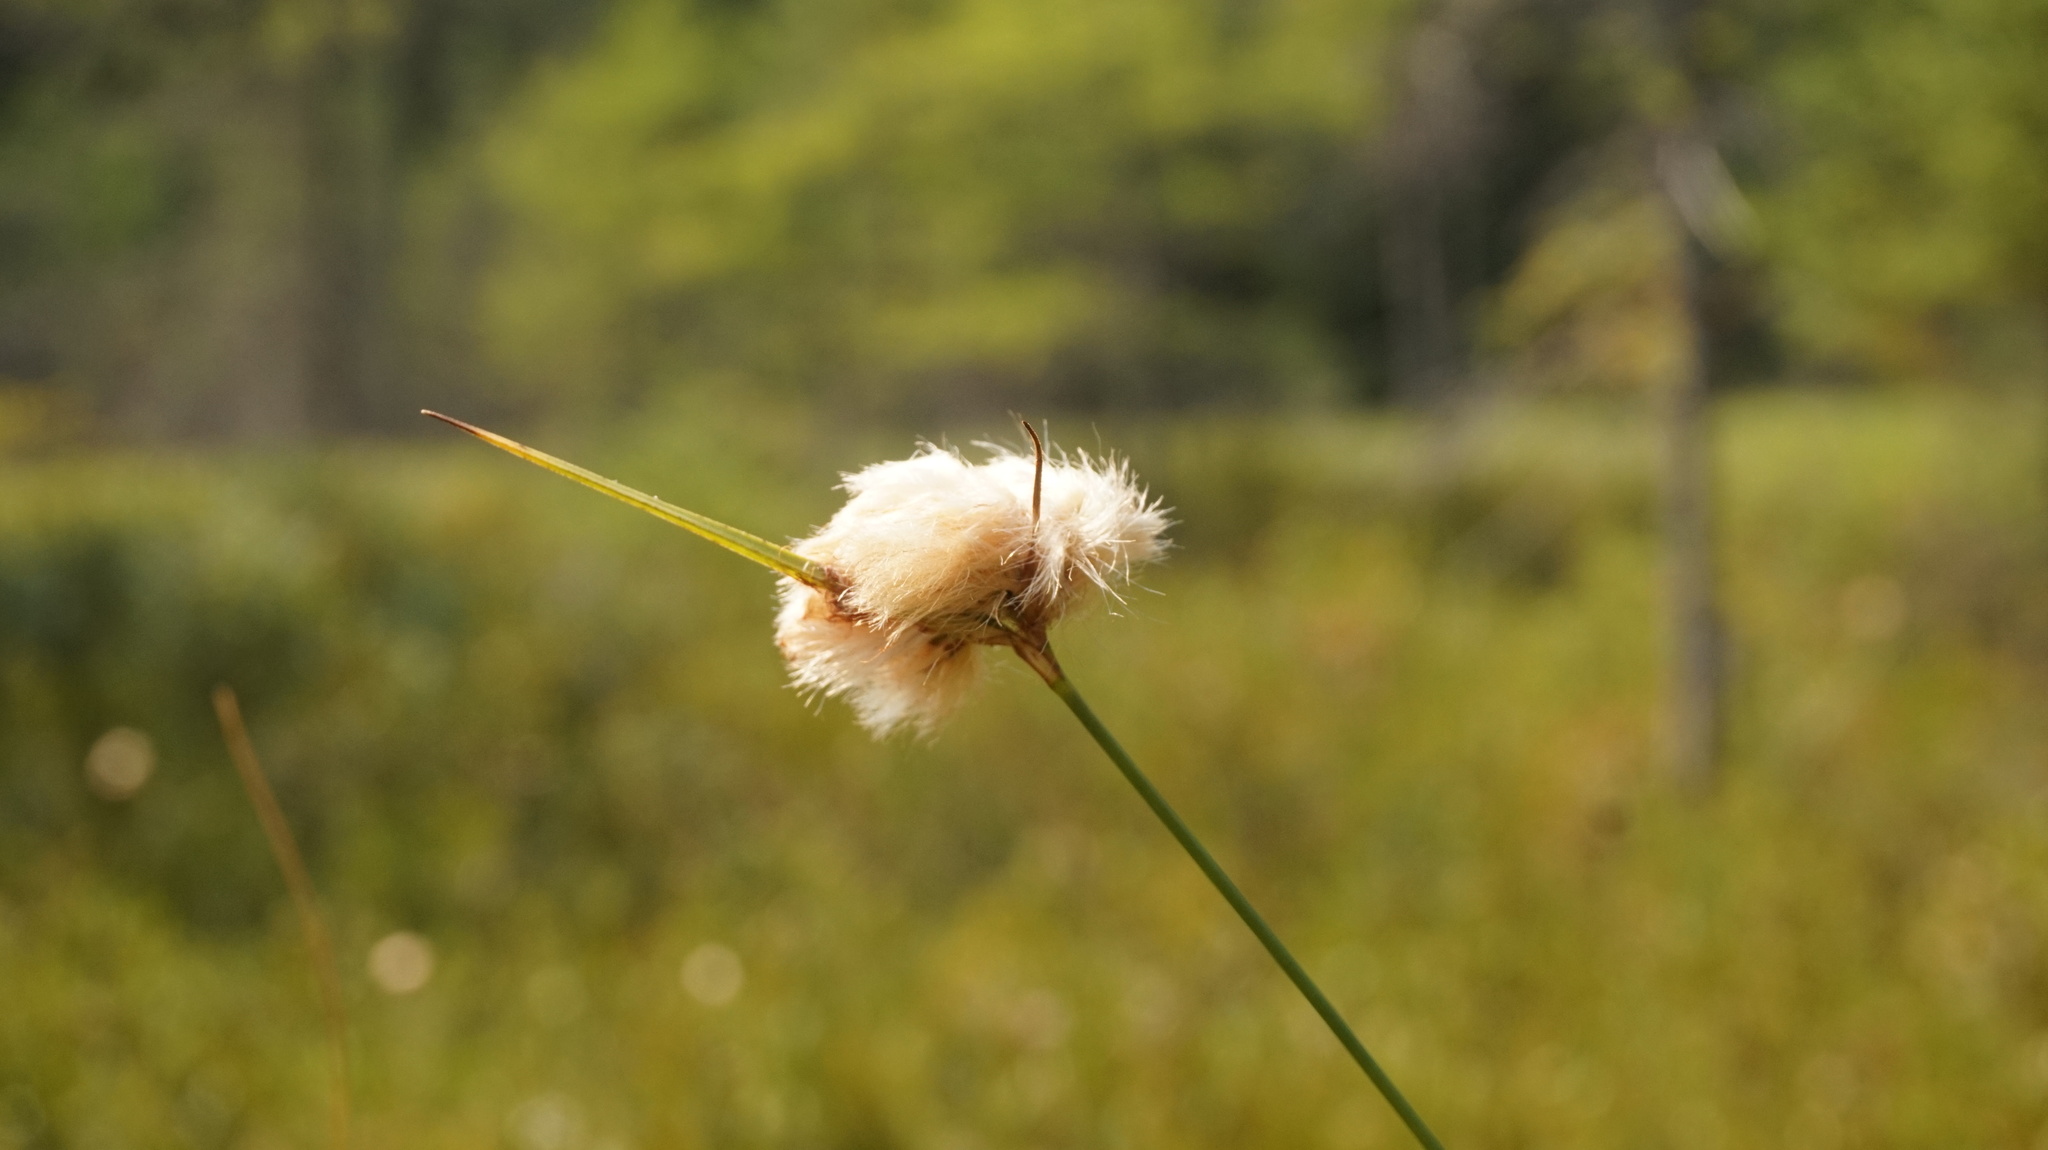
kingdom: Plantae
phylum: Tracheophyta
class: Liliopsida
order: Poales
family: Cyperaceae
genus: Eriophorum
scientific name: Eriophorum virginicum
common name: Tawny cottongrass
